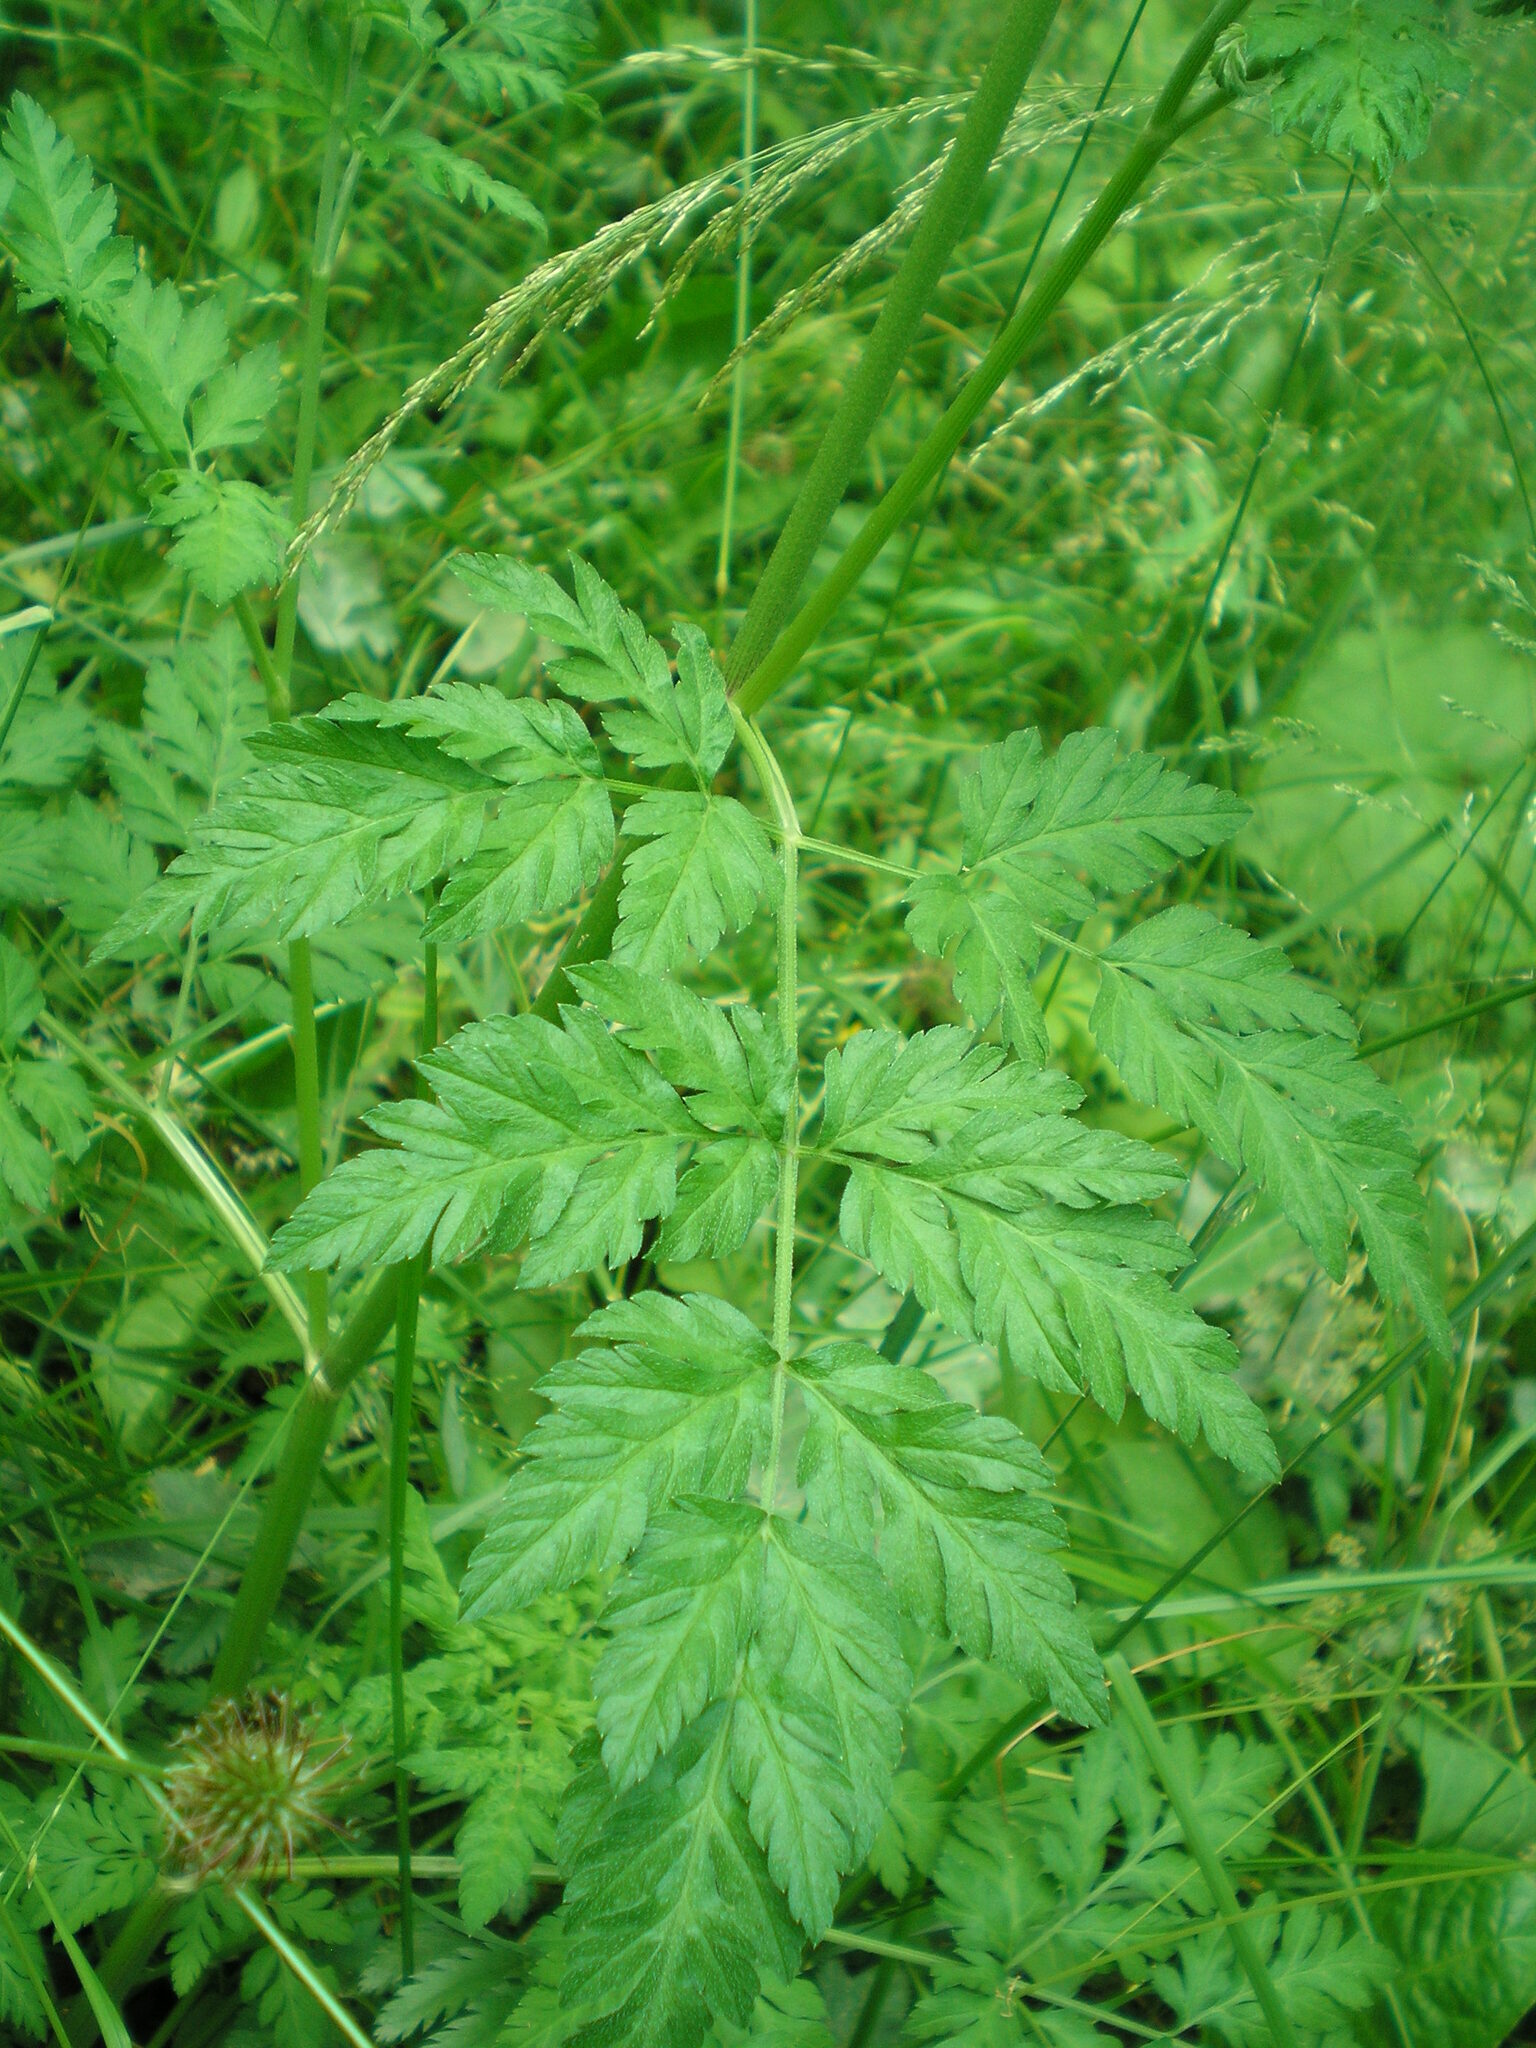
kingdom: Plantae
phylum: Tracheophyta
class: Magnoliopsida
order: Apiales
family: Apiaceae
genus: Torilis
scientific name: Torilis japonica
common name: Upright hedge-parsley
